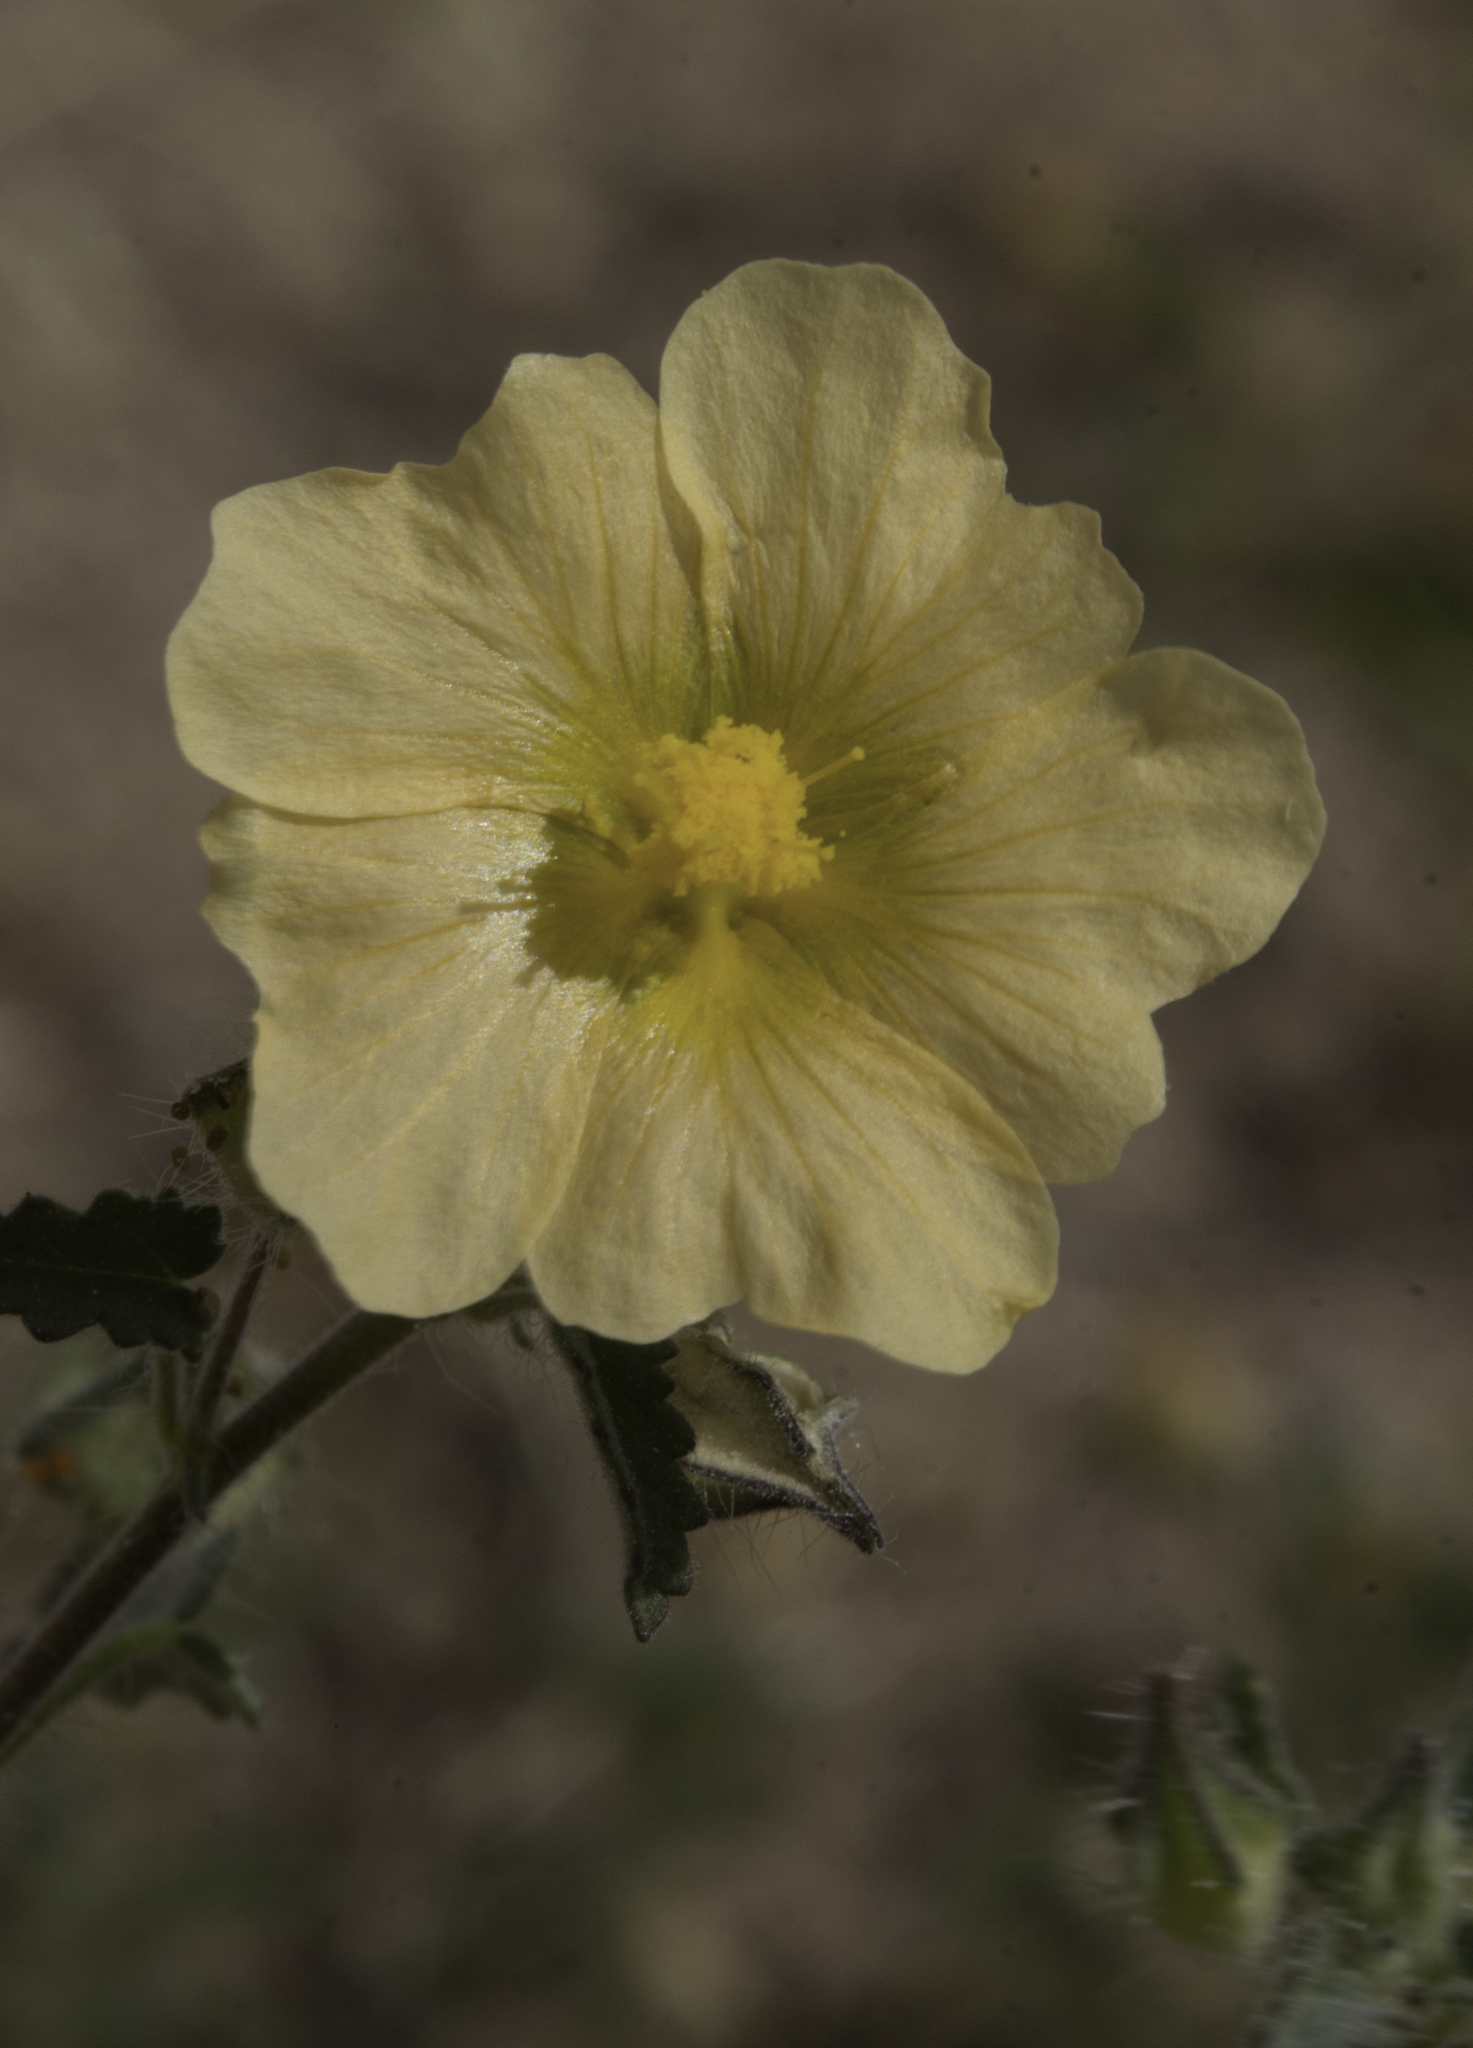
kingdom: Plantae
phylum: Tracheophyta
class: Magnoliopsida
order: Malvales
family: Malvaceae
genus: Sida
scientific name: Sida abutilifolia
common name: Spreading fanpetals
